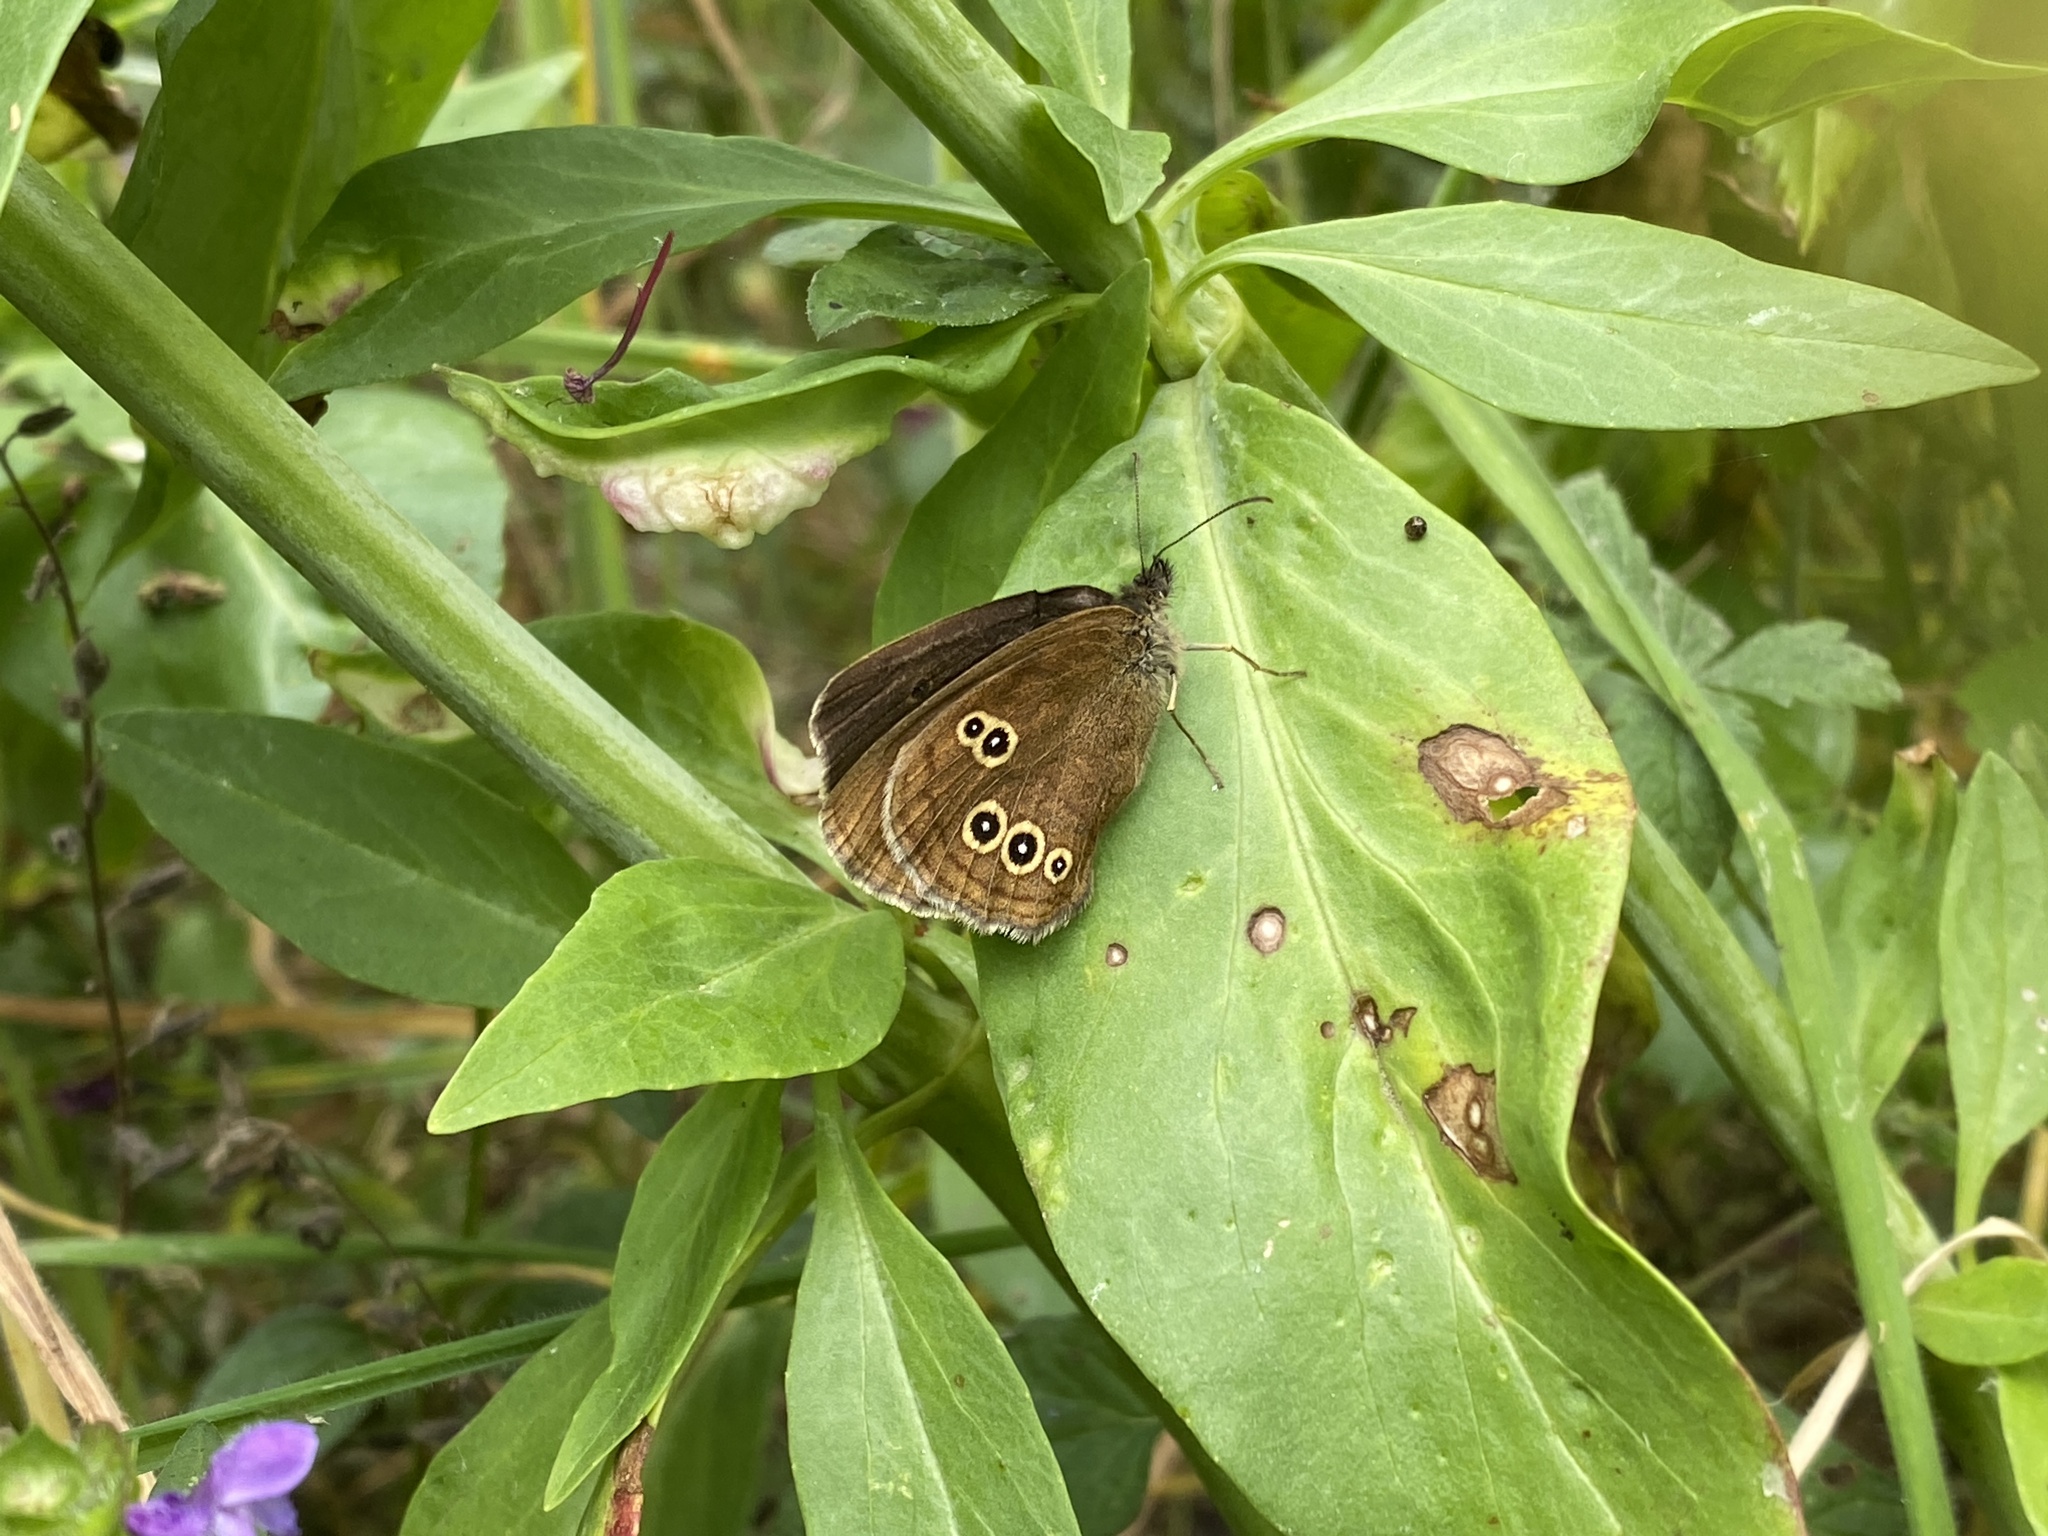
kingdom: Animalia
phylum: Arthropoda
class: Insecta
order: Lepidoptera
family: Nymphalidae
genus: Aphantopus
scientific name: Aphantopus hyperantus
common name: Ringlet
